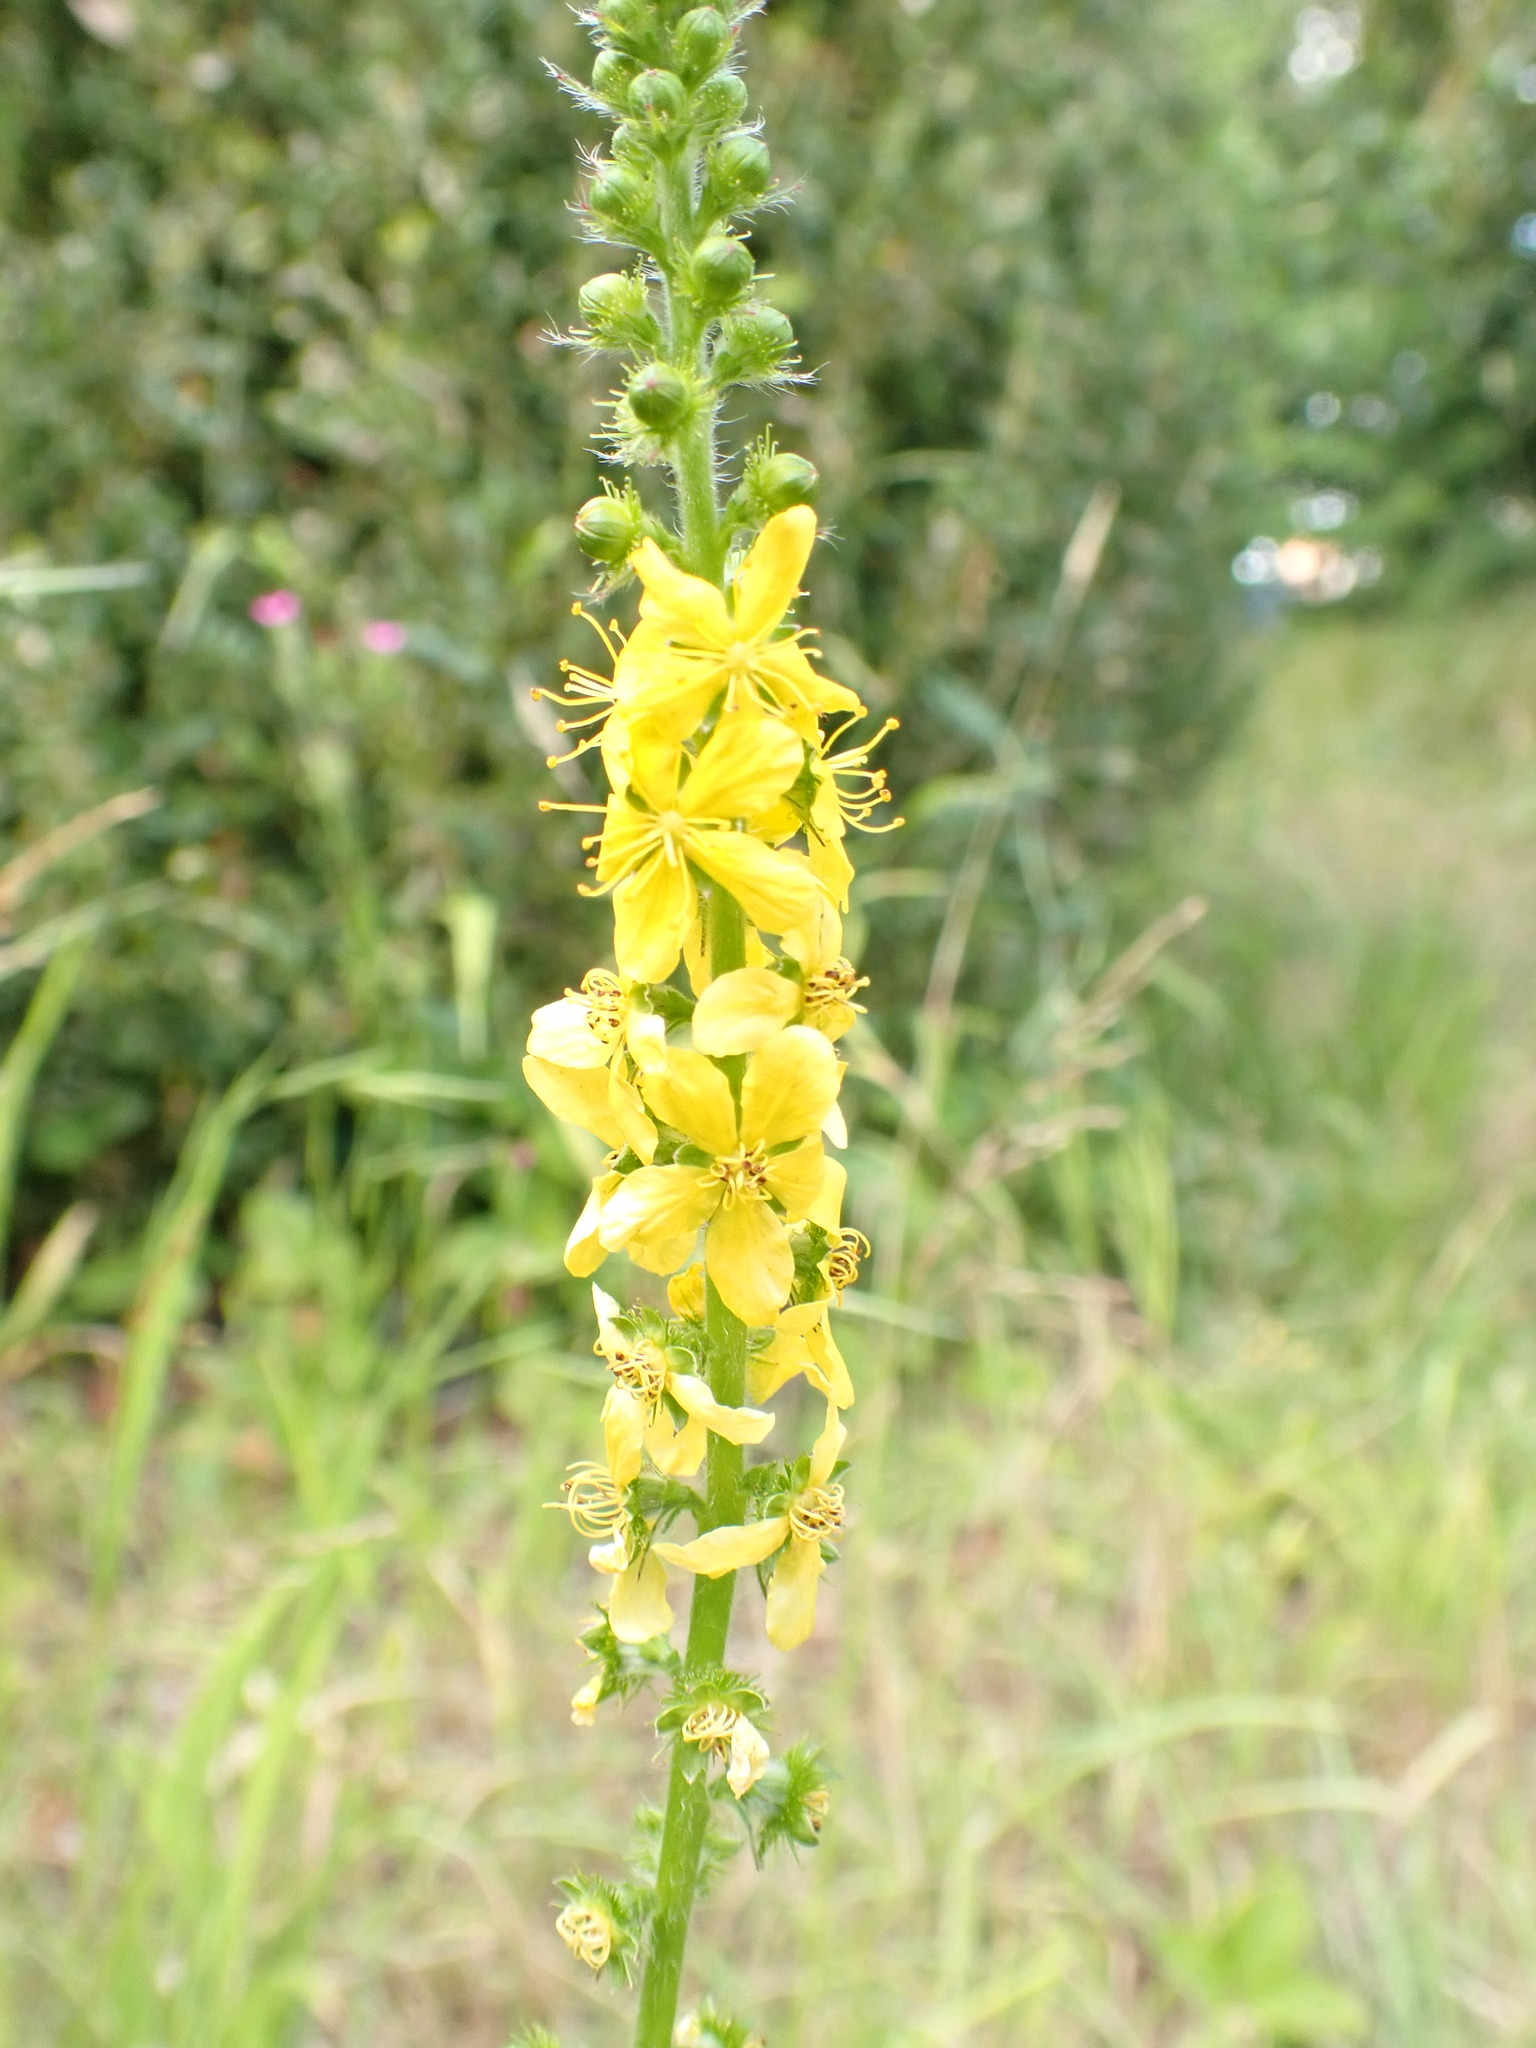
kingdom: Plantae
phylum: Tracheophyta
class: Magnoliopsida
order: Rosales
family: Rosaceae
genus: Agrimonia
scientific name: Agrimonia eupatoria
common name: Agrimony
